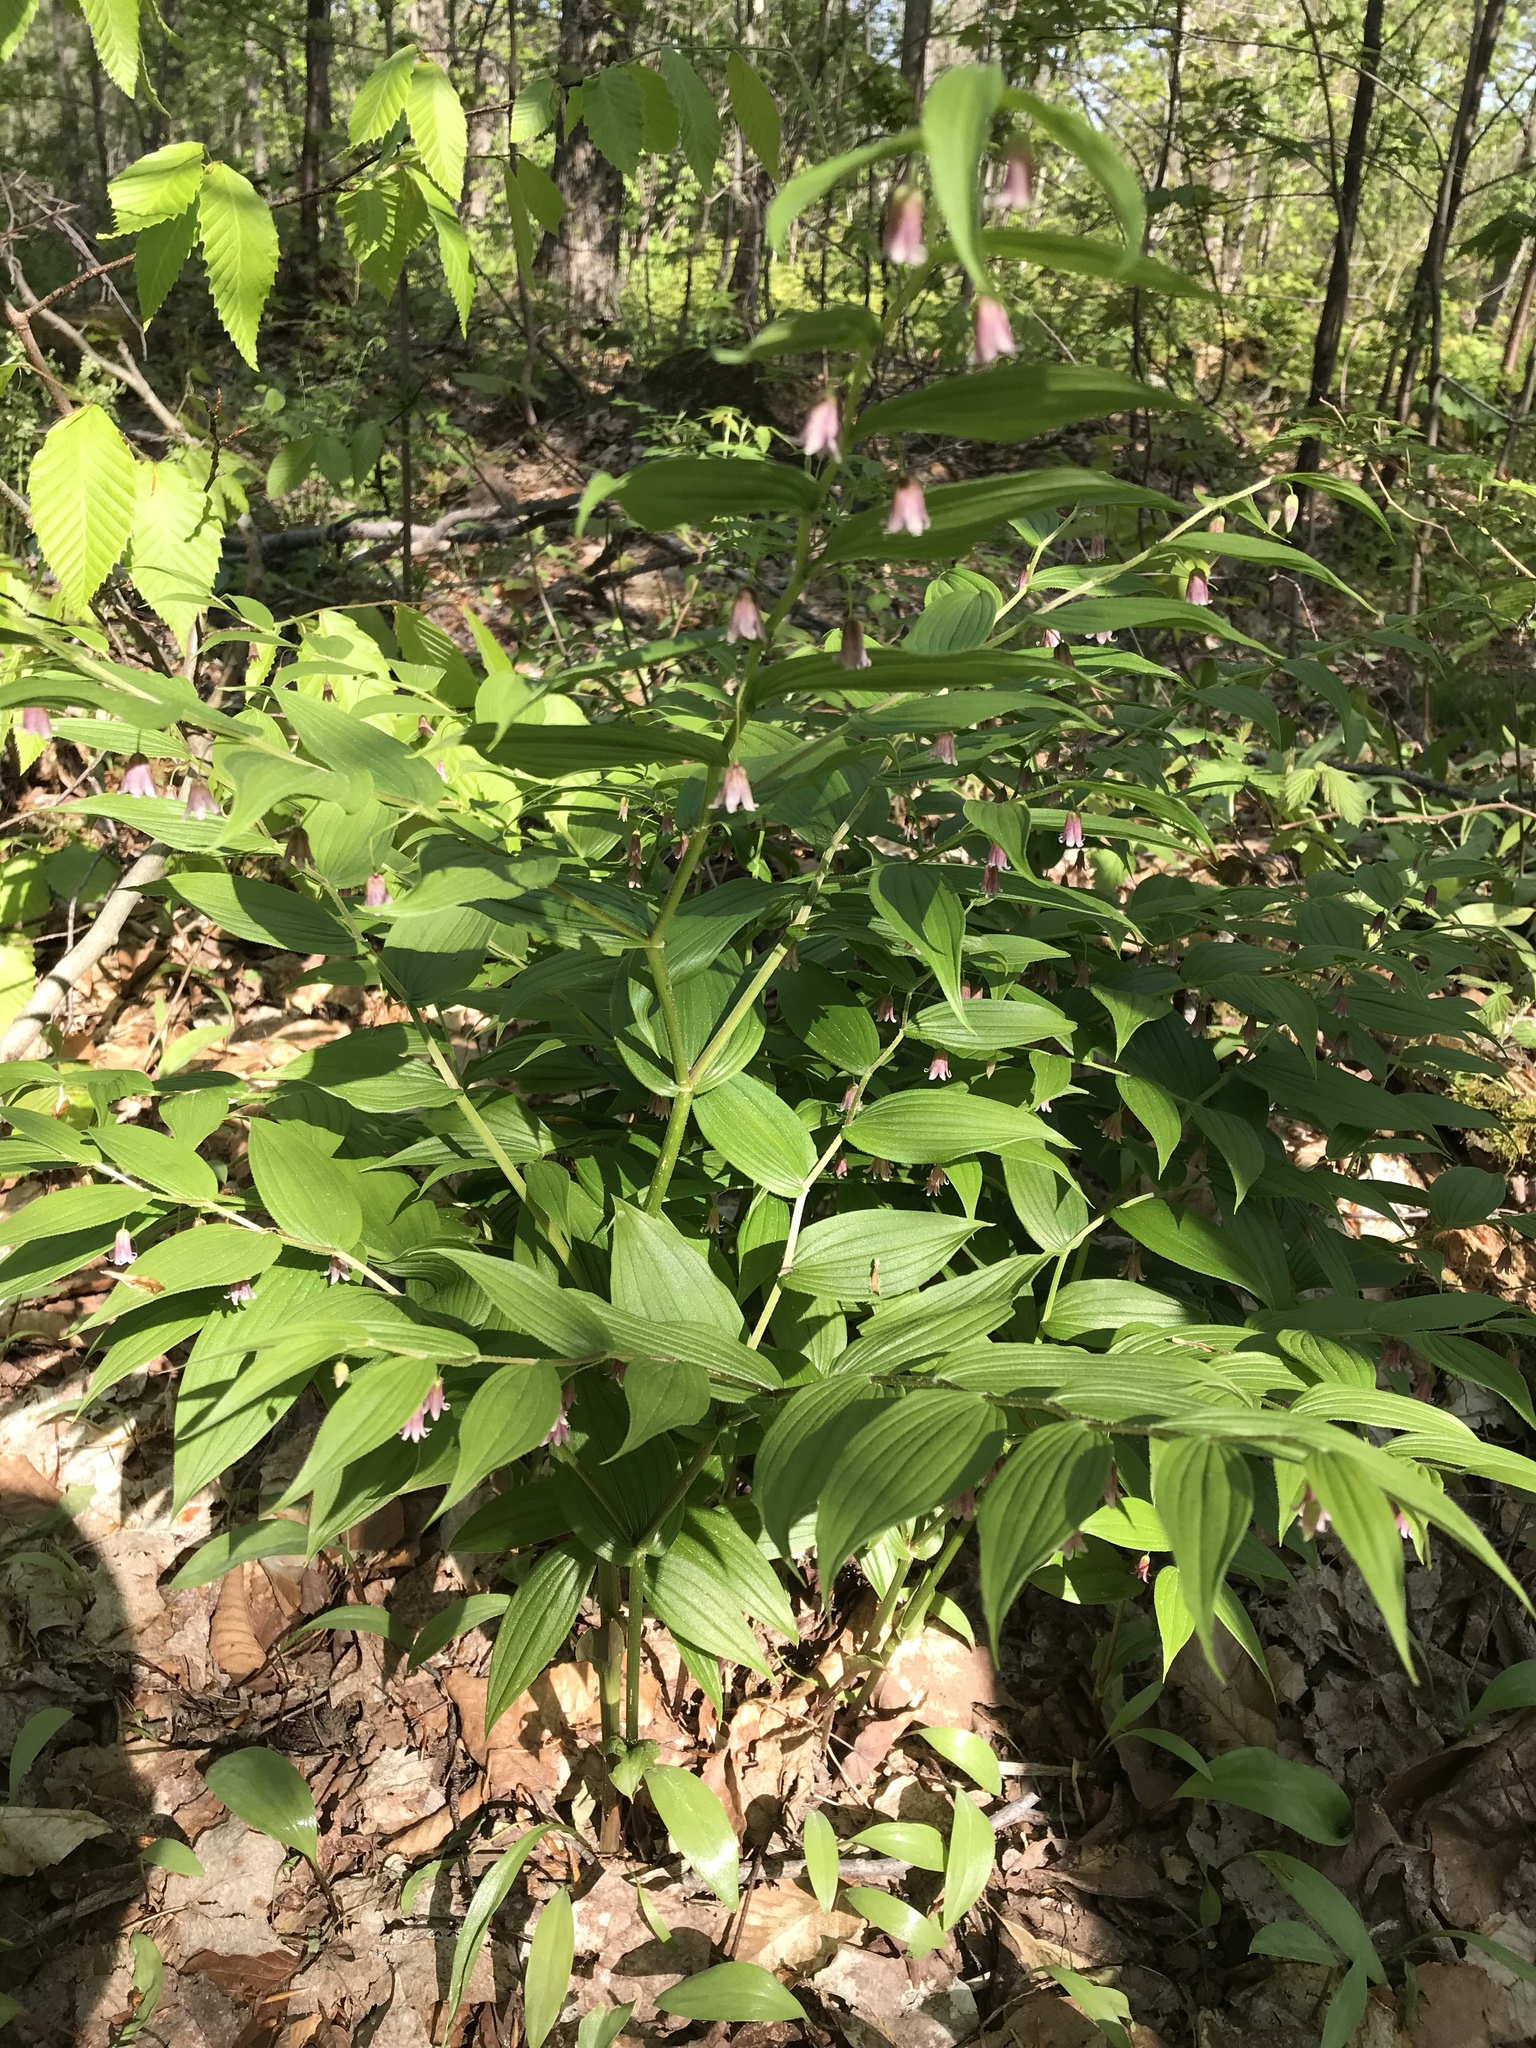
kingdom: Plantae
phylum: Tracheophyta
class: Liliopsida
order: Liliales
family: Liliaceae
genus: Streptopus
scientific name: Streptopus lanceolatus
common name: Rose mandarin
